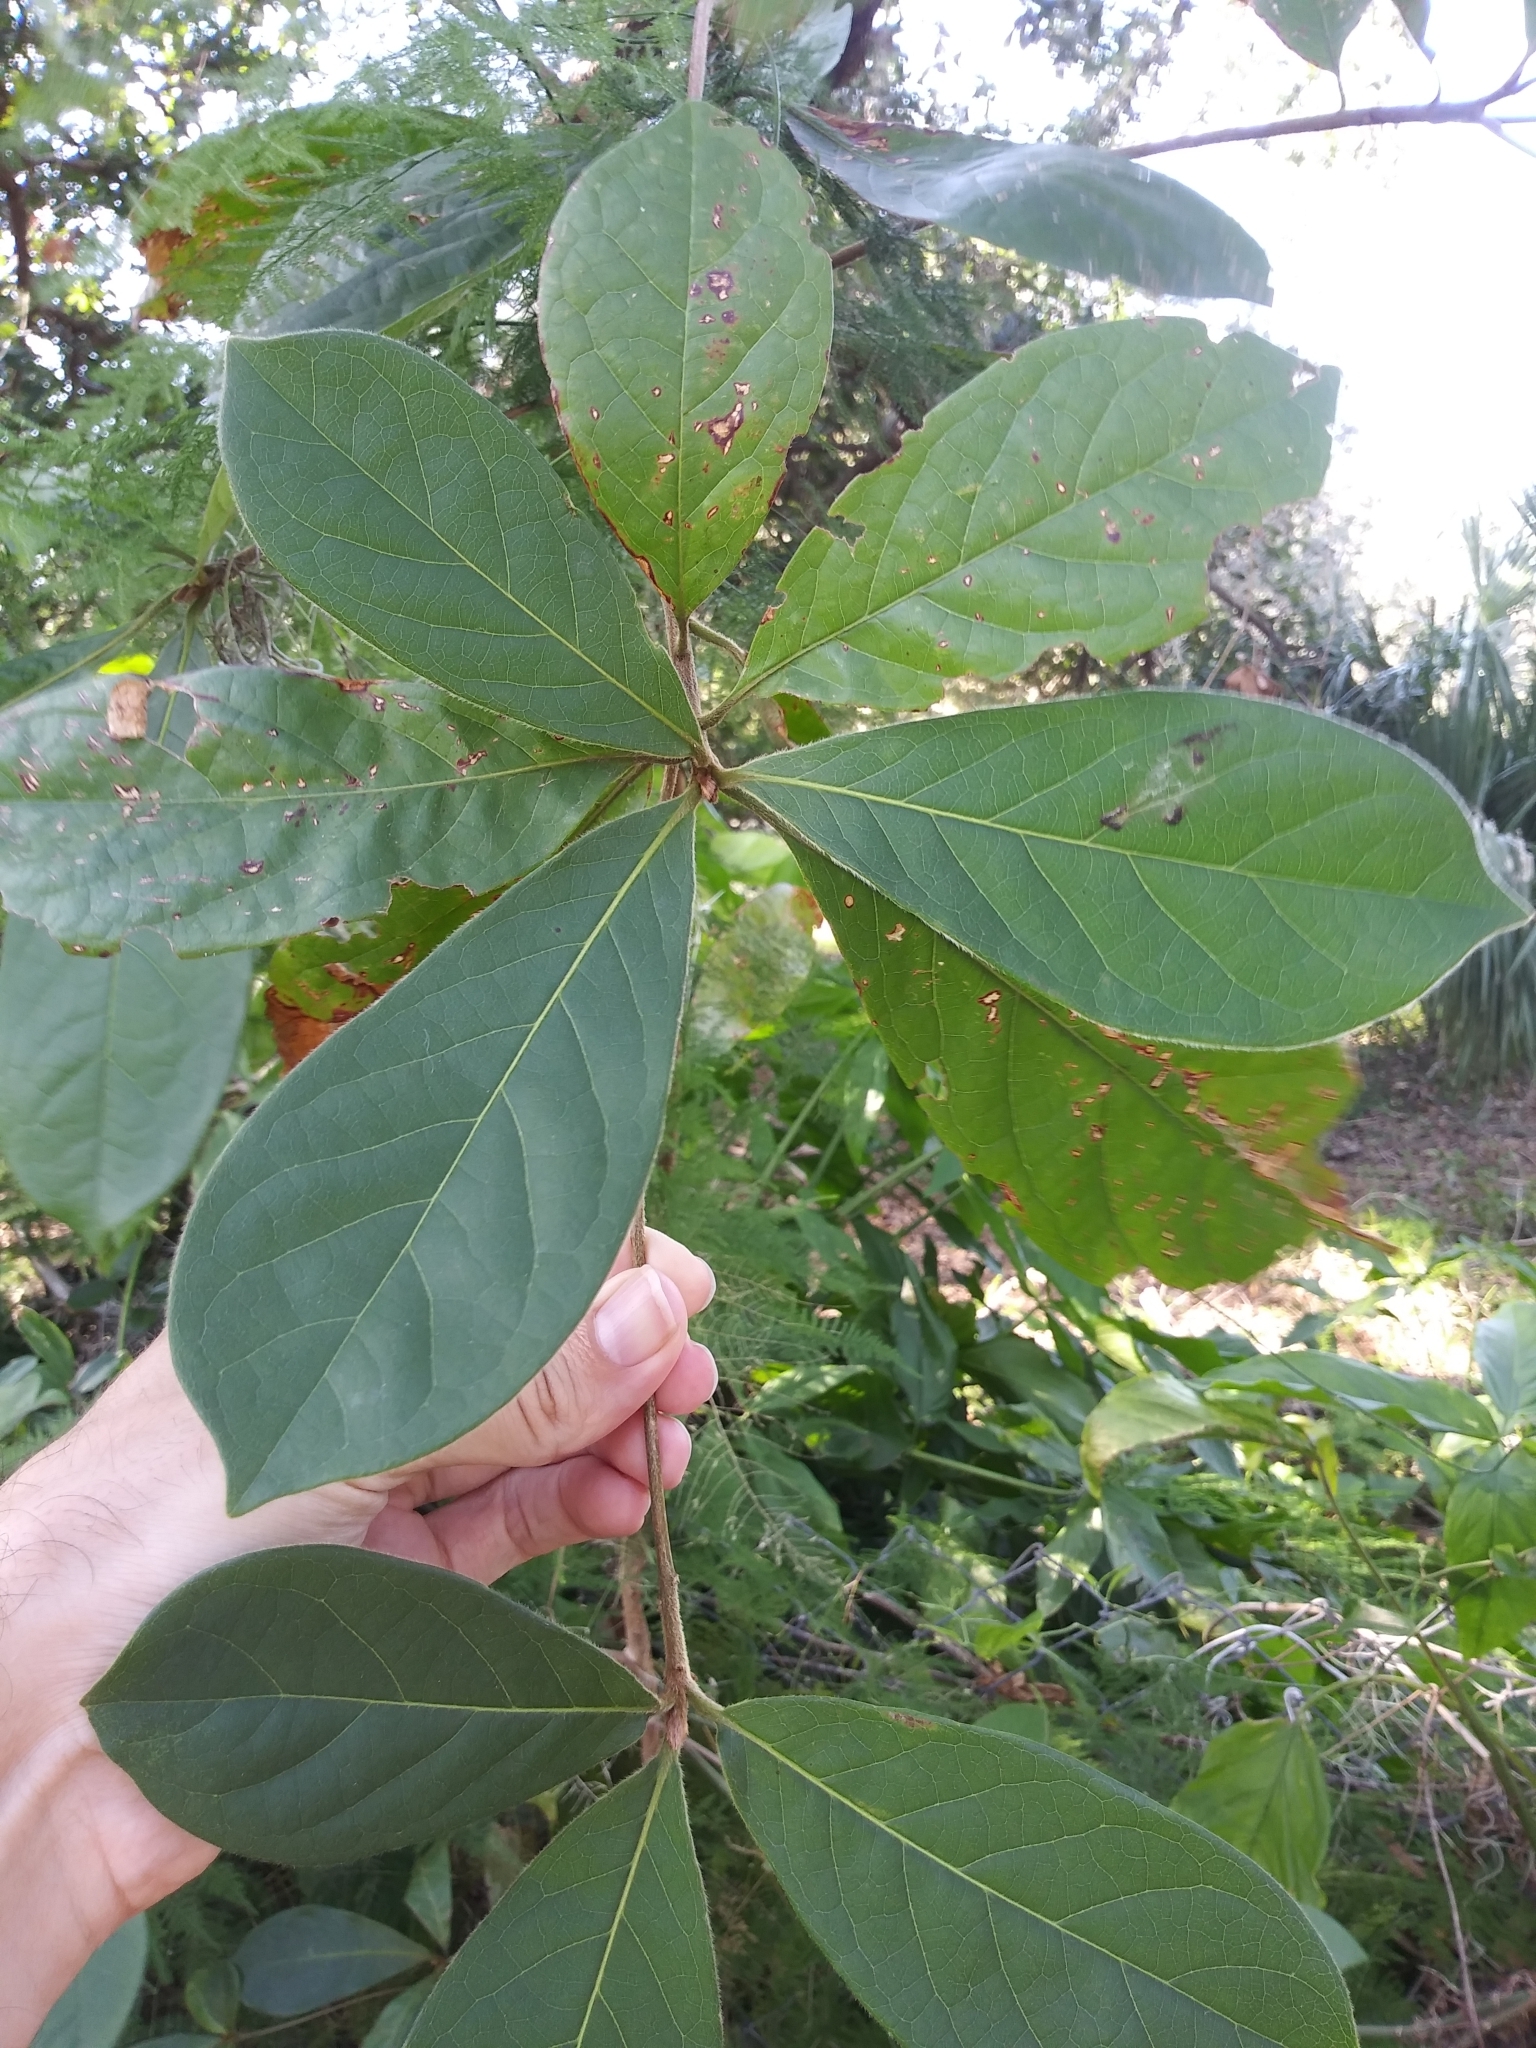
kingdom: Plantae
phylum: Tracheophyta
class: Magnoliopsida
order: Myrtales
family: Combretaceae
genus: Terminalia
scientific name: Terminalia muelleri
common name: Australian almond
